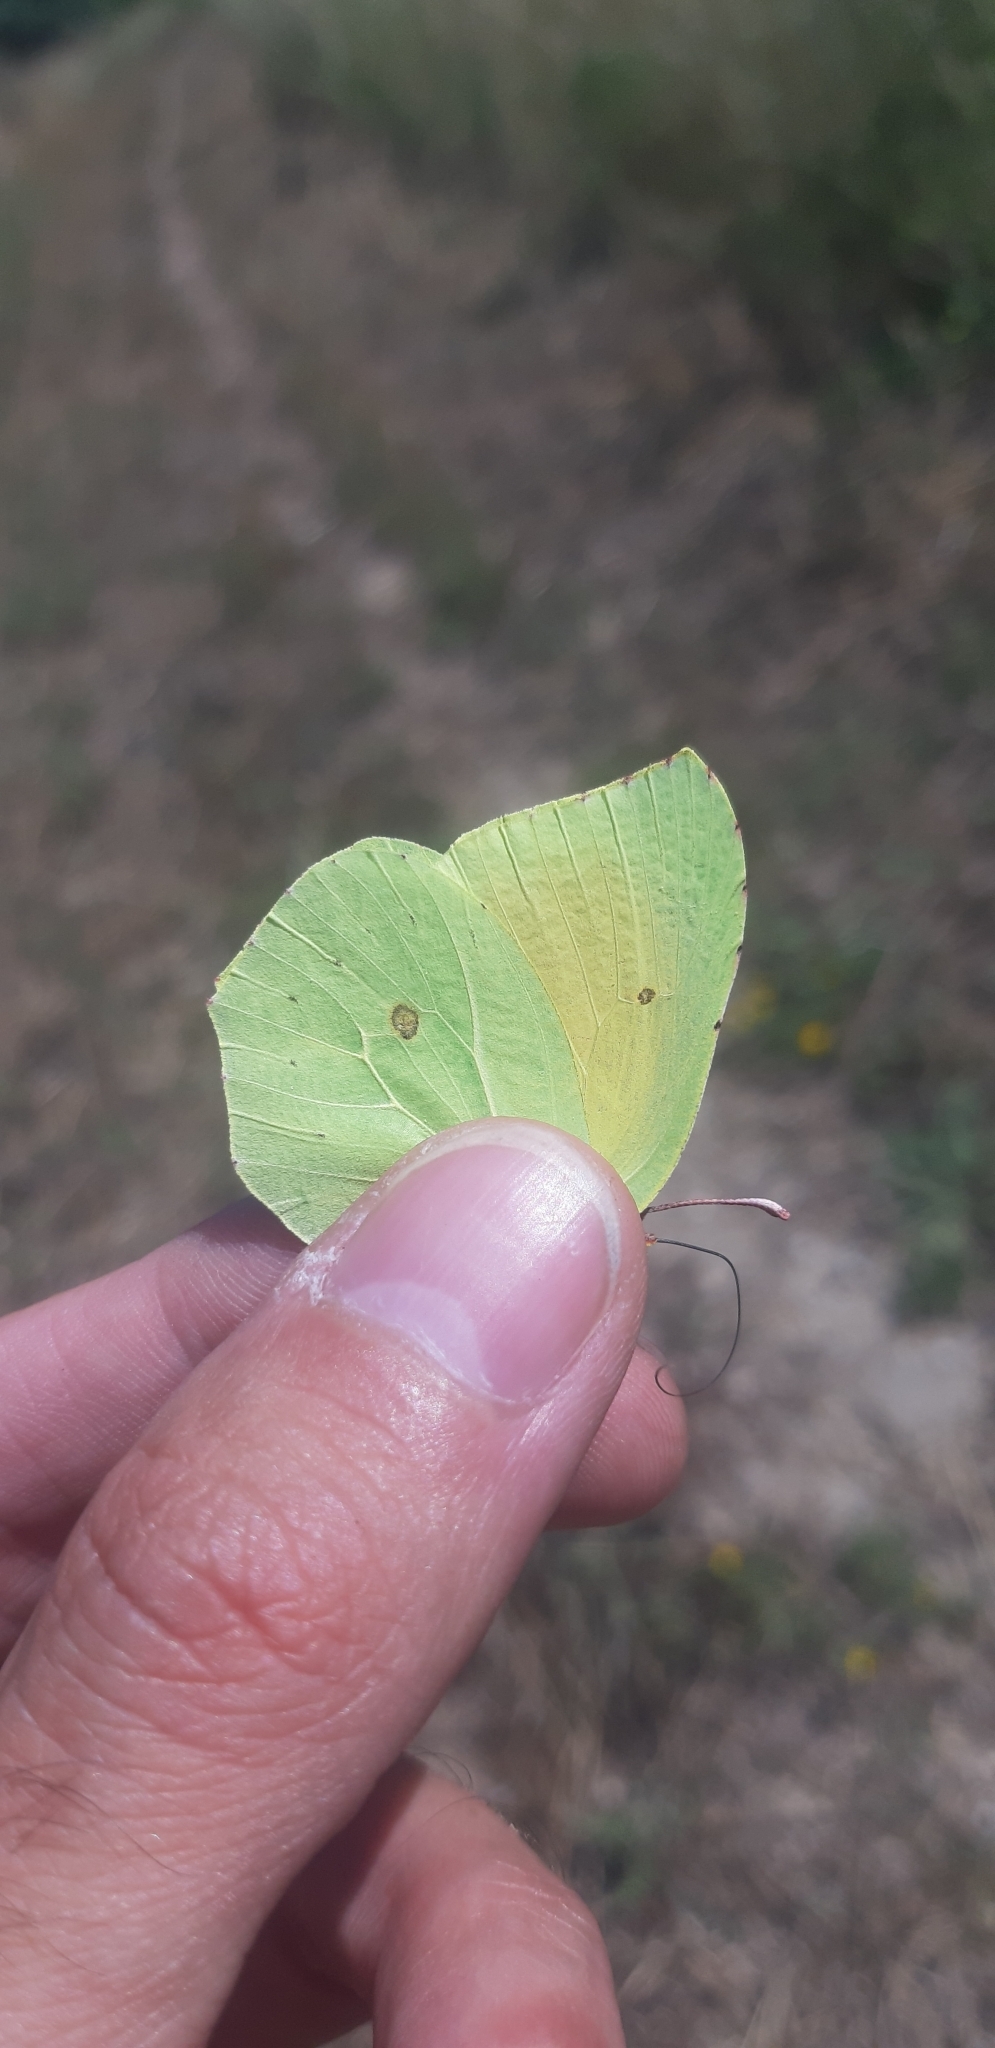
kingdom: Animalia
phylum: Arthropoda
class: Insecta
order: Lepidoptera
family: Pieridae
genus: Gonepteryx
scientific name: Gonepteryx cleopatra
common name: Cleopatra
